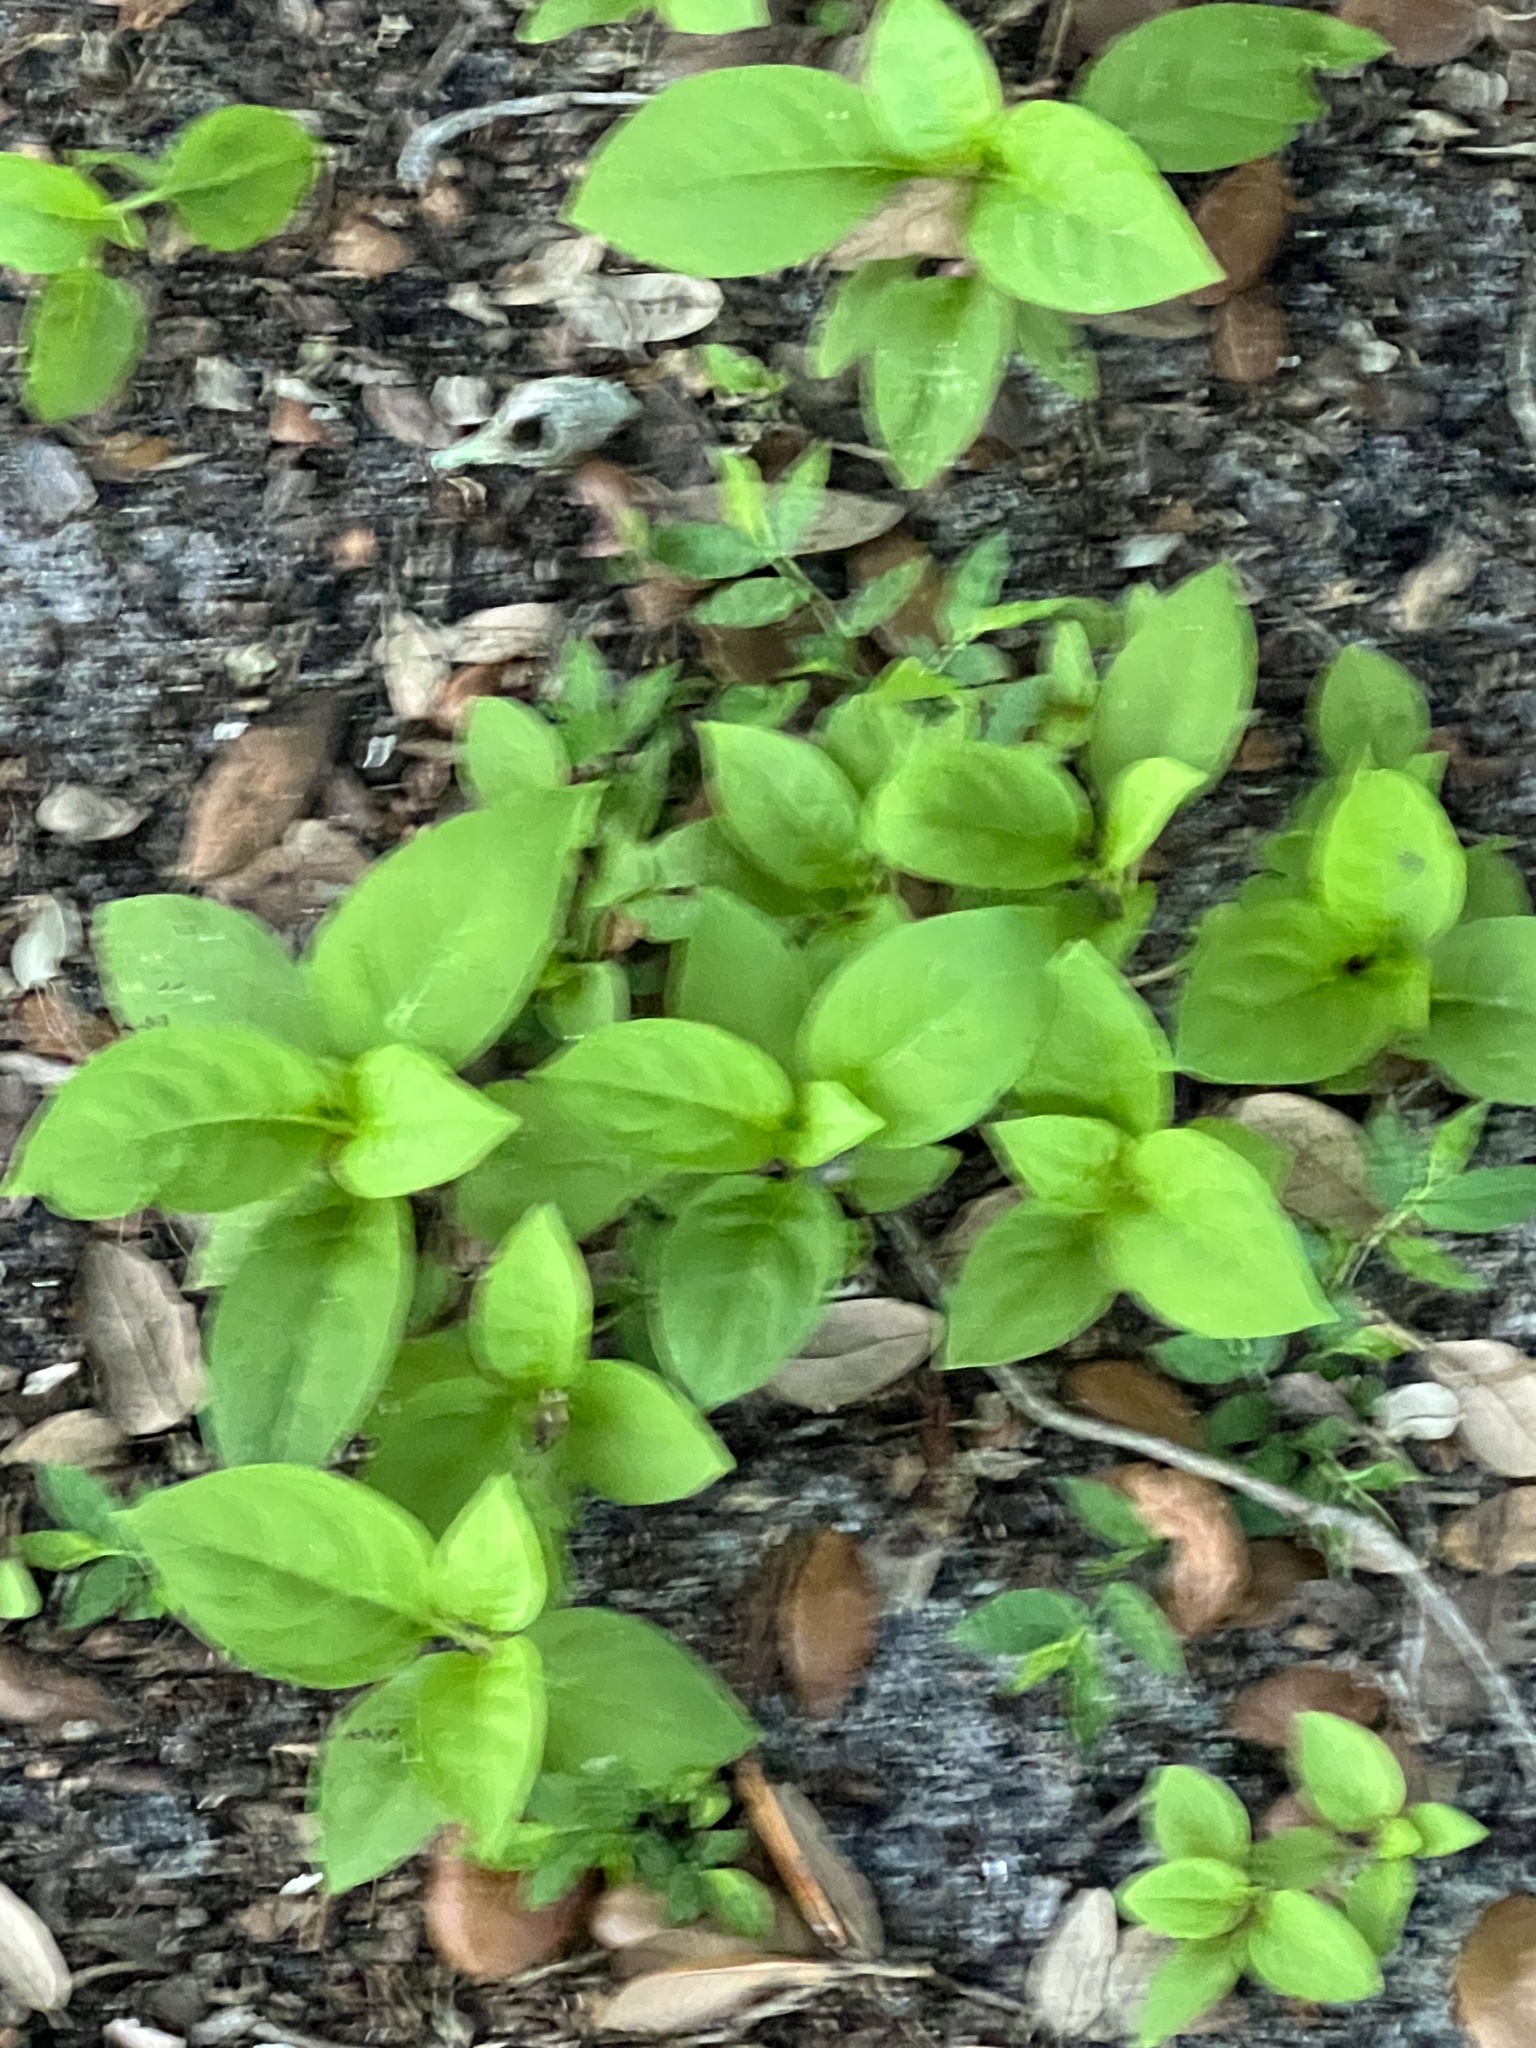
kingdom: Plantae
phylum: Tracheophyta
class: Magnoliopsida
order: Caryophyllales
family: Phytolaccaceae
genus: Phytolacca
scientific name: Phytolacca americana
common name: American pokeweed
